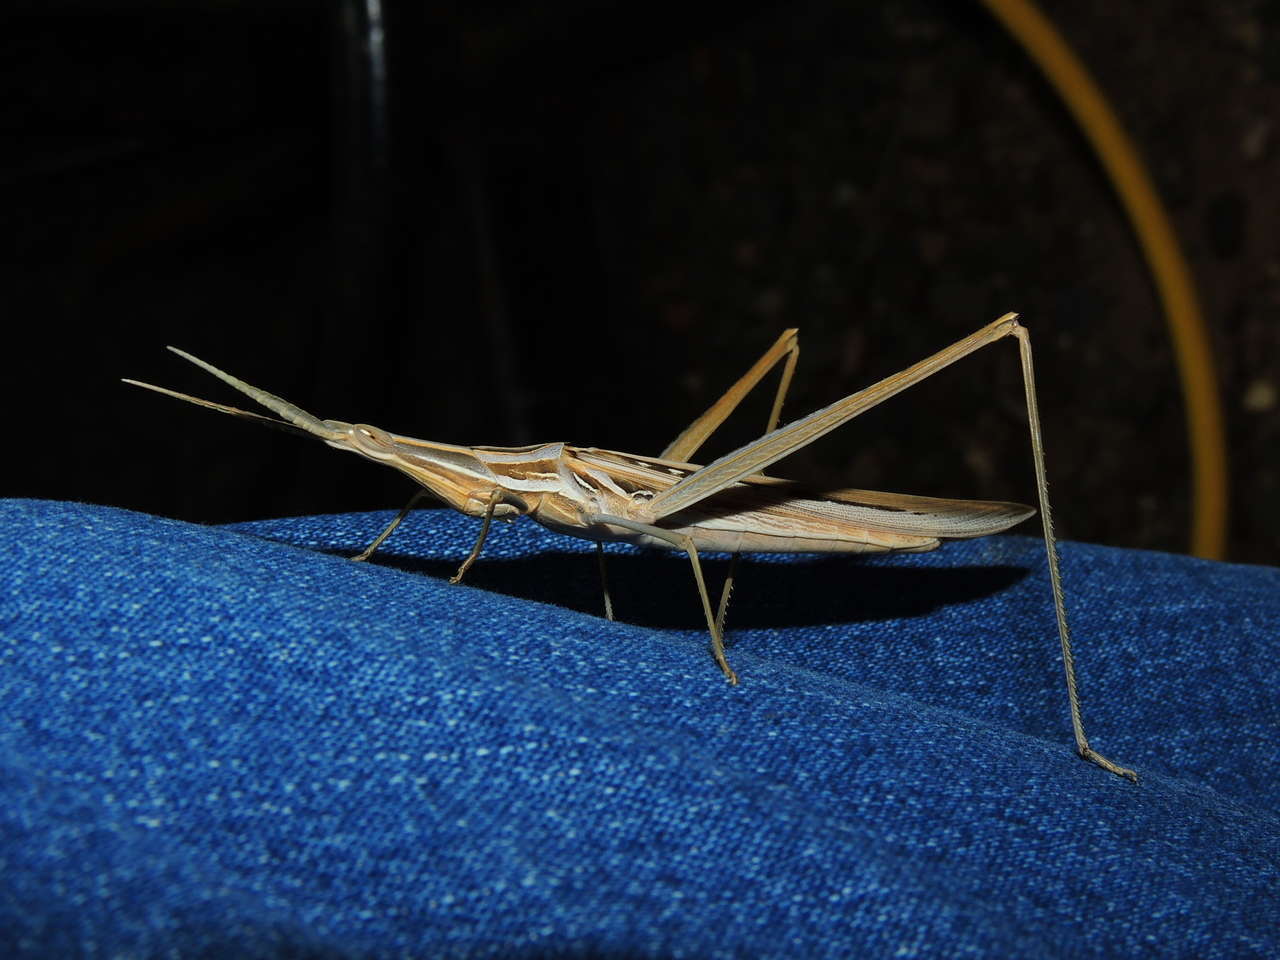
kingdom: Animalia
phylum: Arthropoda
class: Insecta
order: Orthoptera
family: Acrididae
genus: Acrida
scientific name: Acrida conica
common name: Giant green slantface
